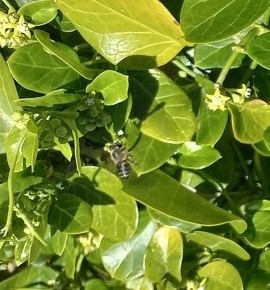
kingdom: Animalia
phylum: Arthropoda
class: Insecta
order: Hymenoptera
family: Apidae
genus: Apis
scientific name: Apis mellifera
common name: Honey bee
